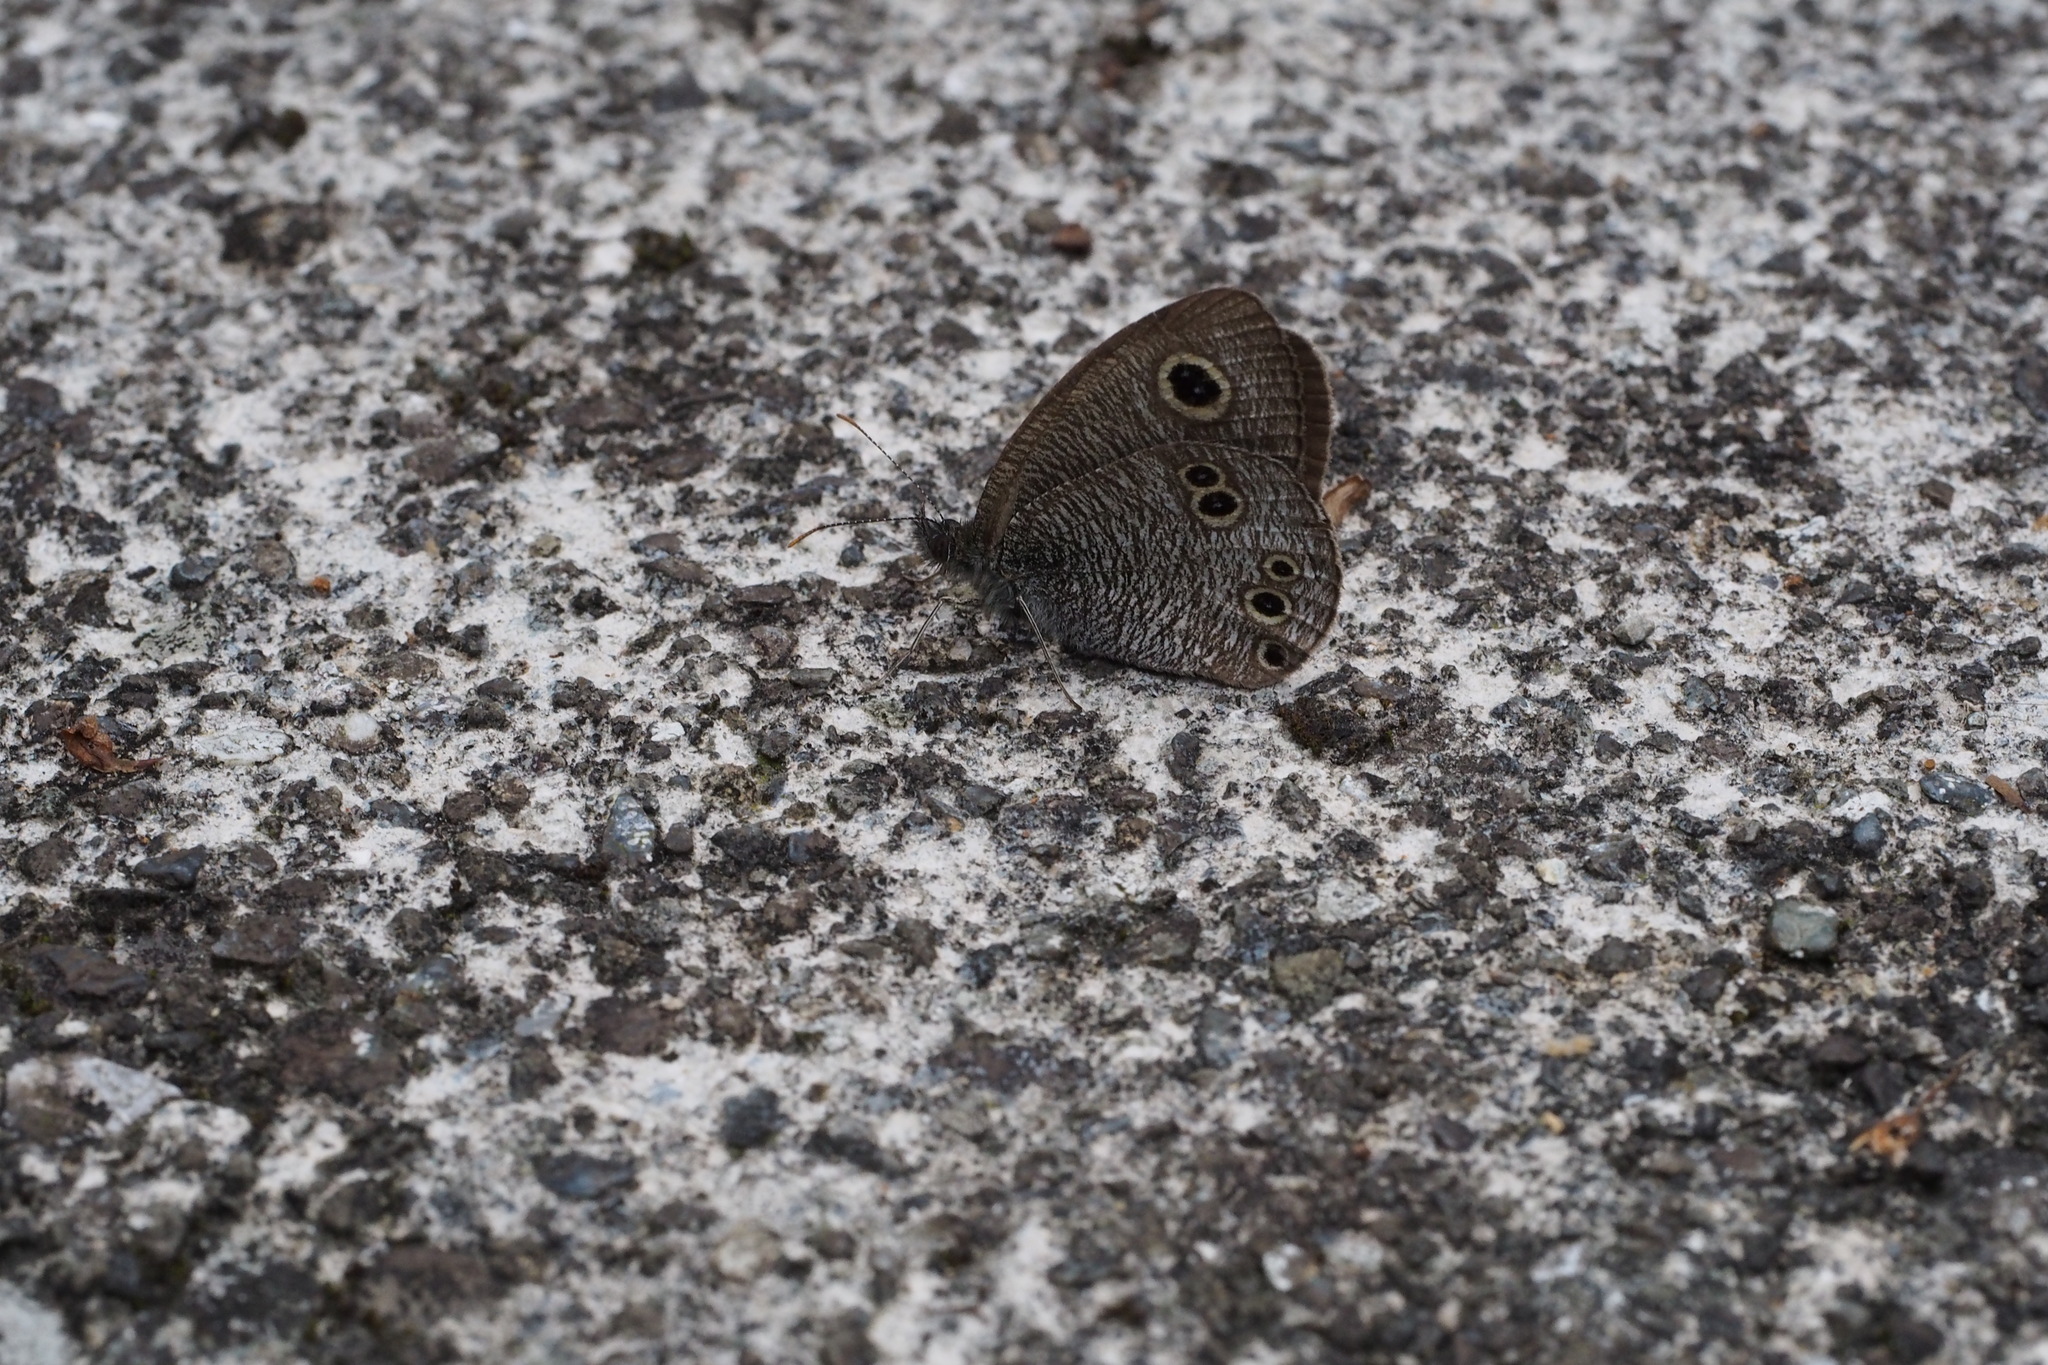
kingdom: Animalia
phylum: Arthropoda
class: Insecta
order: Lepidoptera
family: Nymphalidae
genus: Ypthima
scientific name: Ypthima argus
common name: Common fivering
